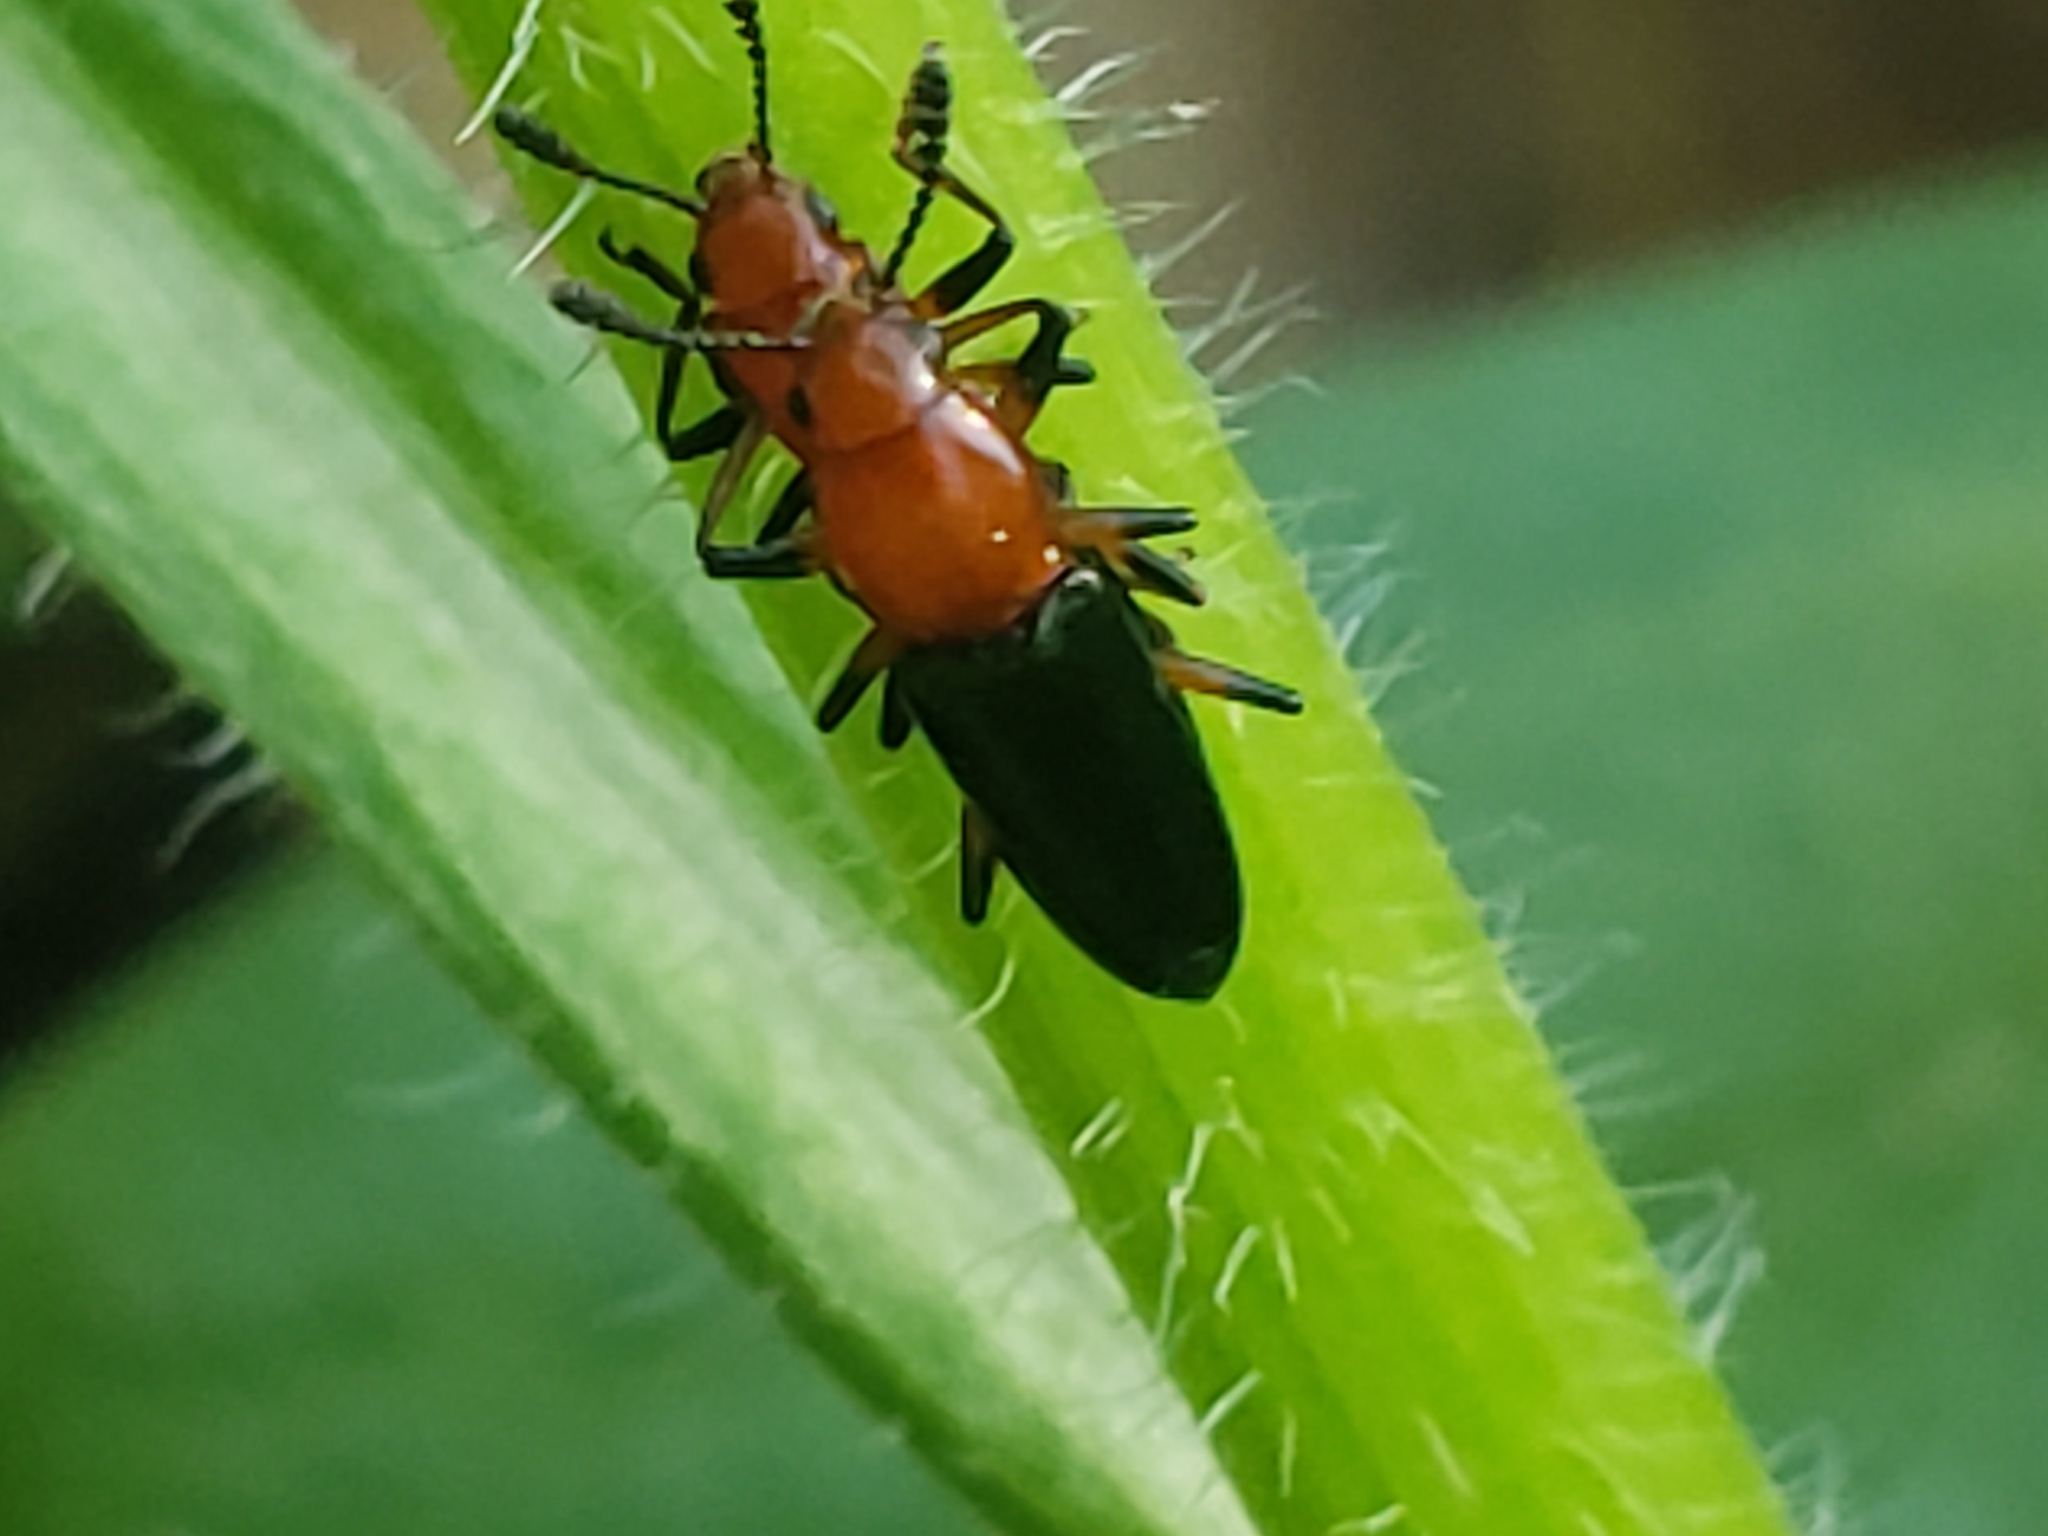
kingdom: Animalia
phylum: Arthropoda
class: Insecta
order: Coleoptera
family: Erotylidae
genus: Languria
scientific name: Languria mozardi
